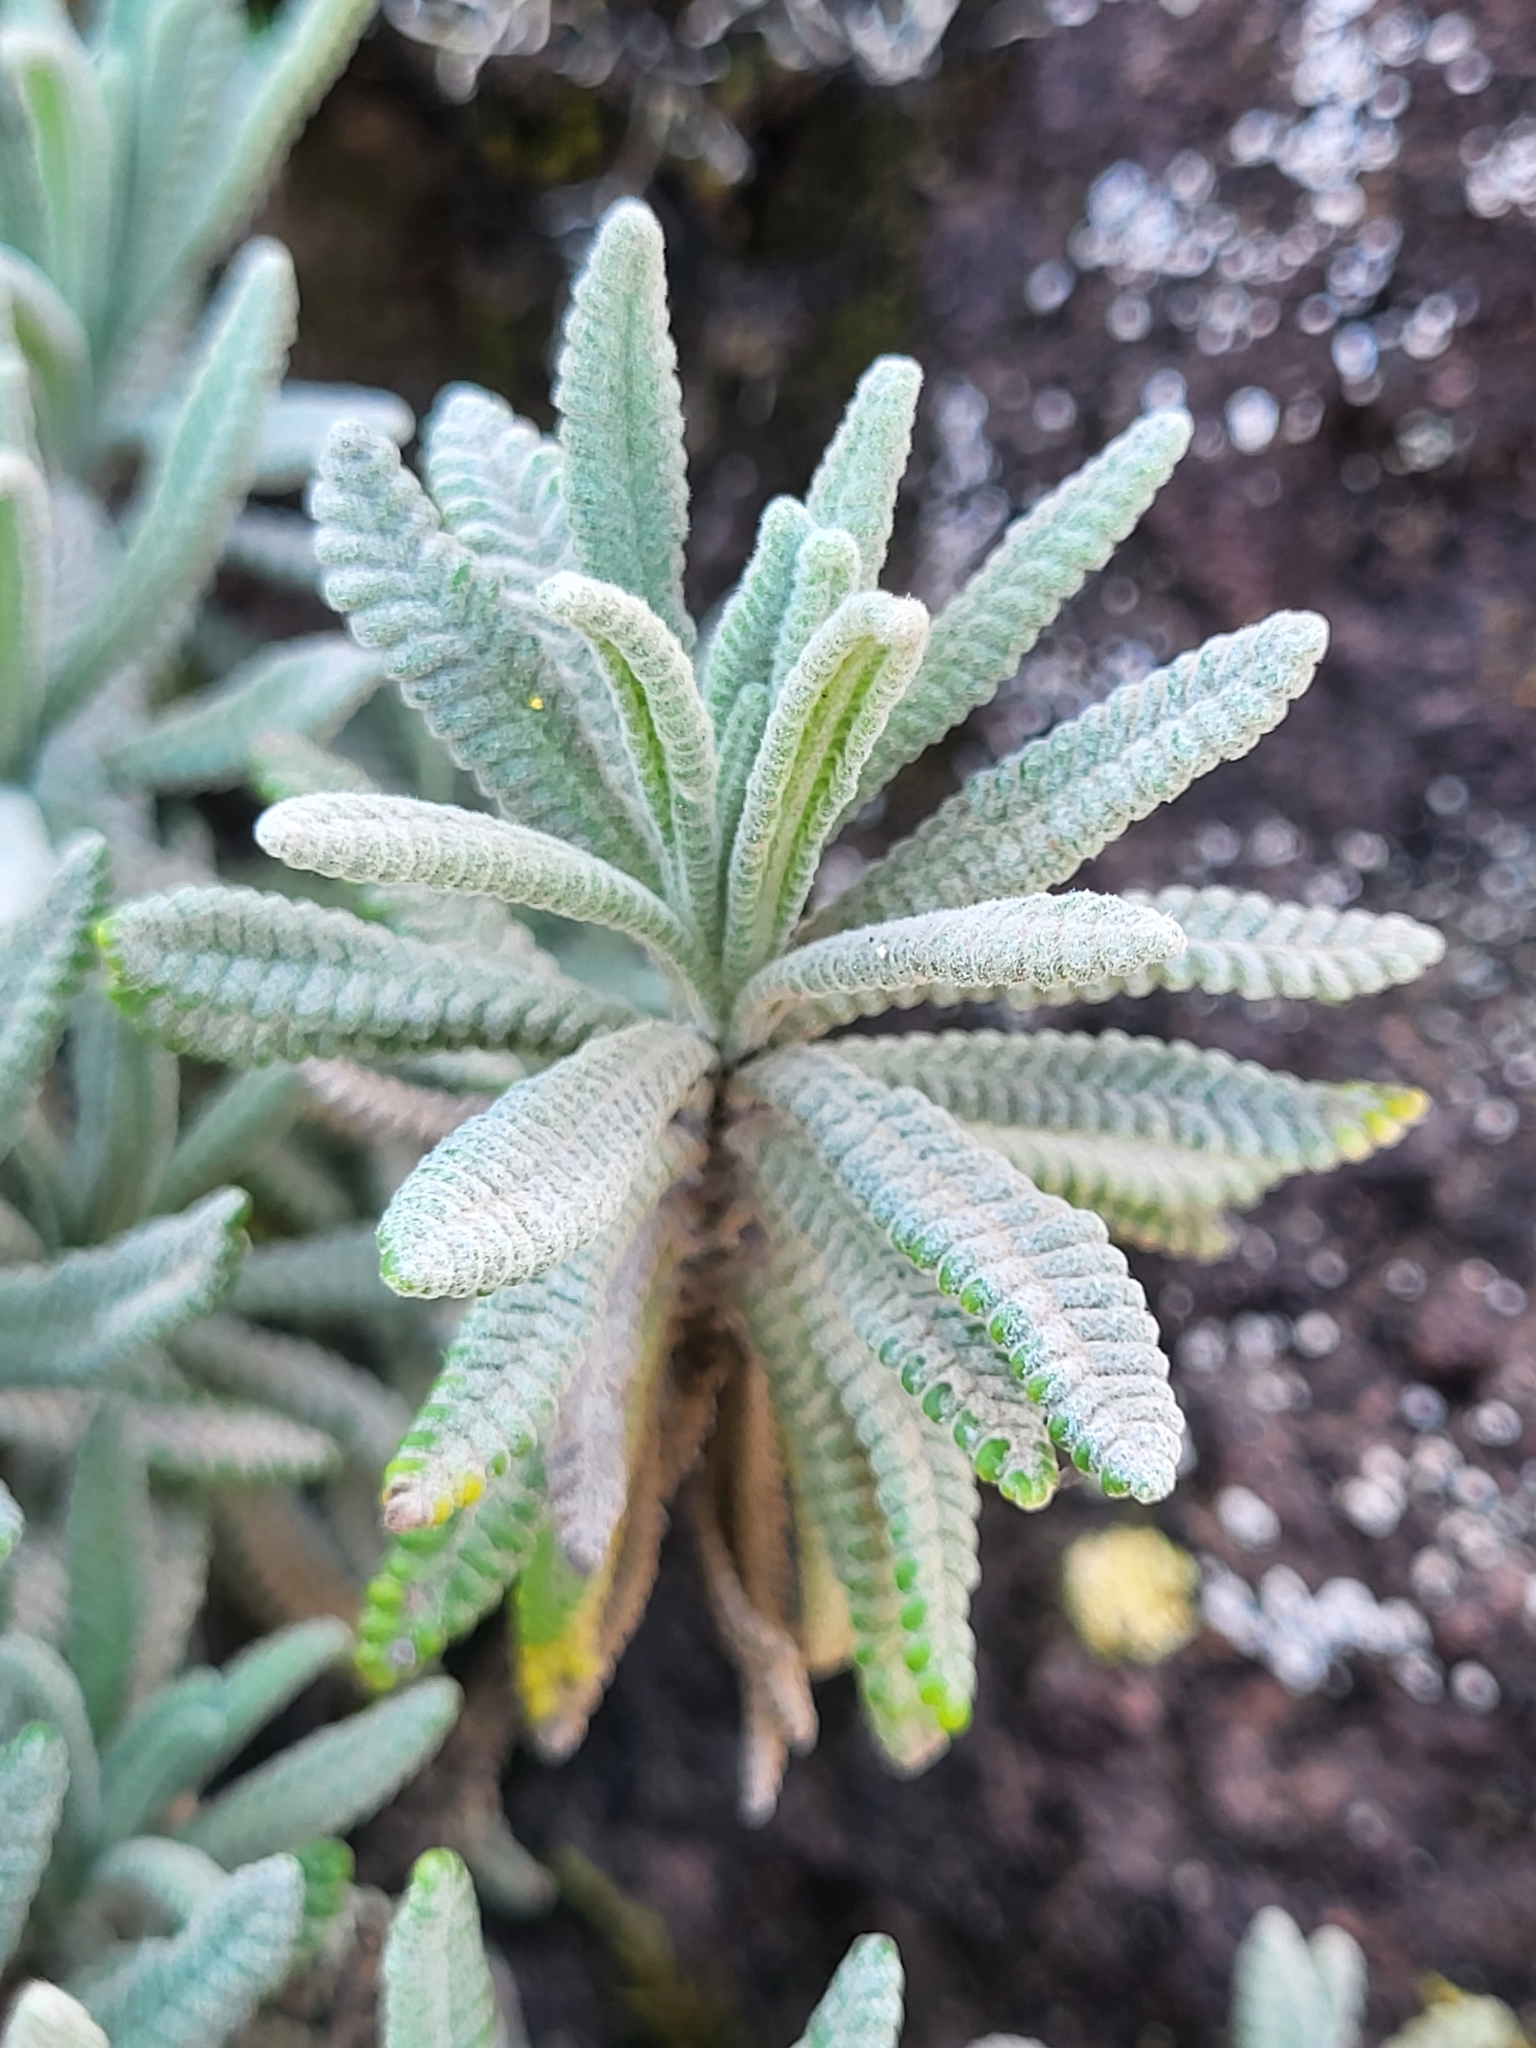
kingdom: Plantae
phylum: Tracheophyta
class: Magnoliopsida
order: Lamiales
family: Lamiaceae
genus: Lavandula
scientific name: Lavandula dentata
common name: French lavender
